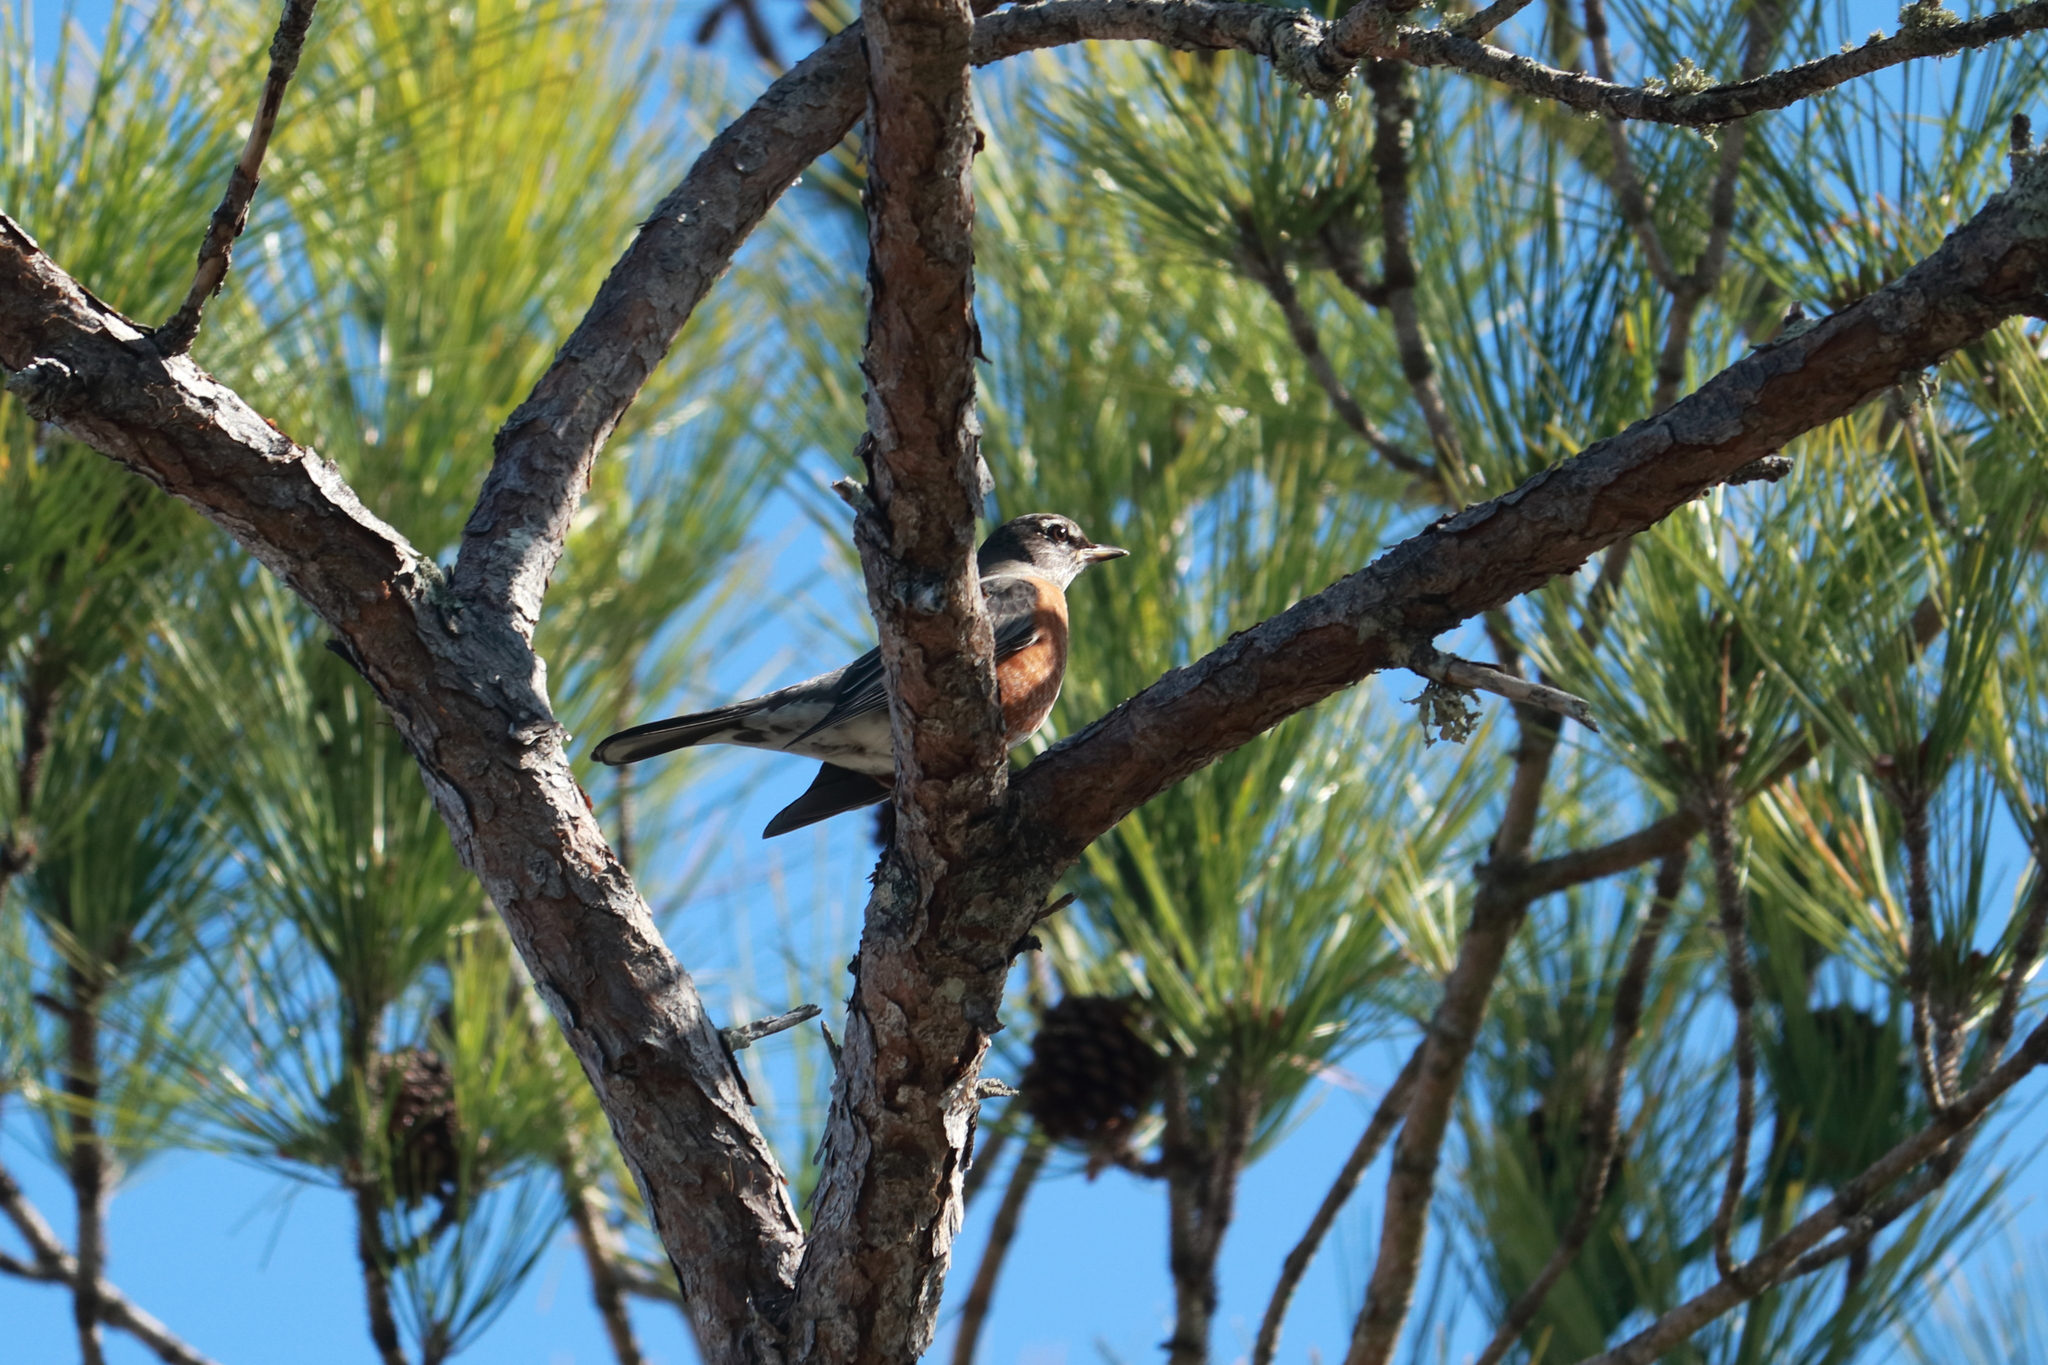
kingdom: Animalia
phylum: Chordata
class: Aves
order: Passeriformes
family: Turdidae
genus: Turdus
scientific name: Turdus migratorius
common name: American robin
